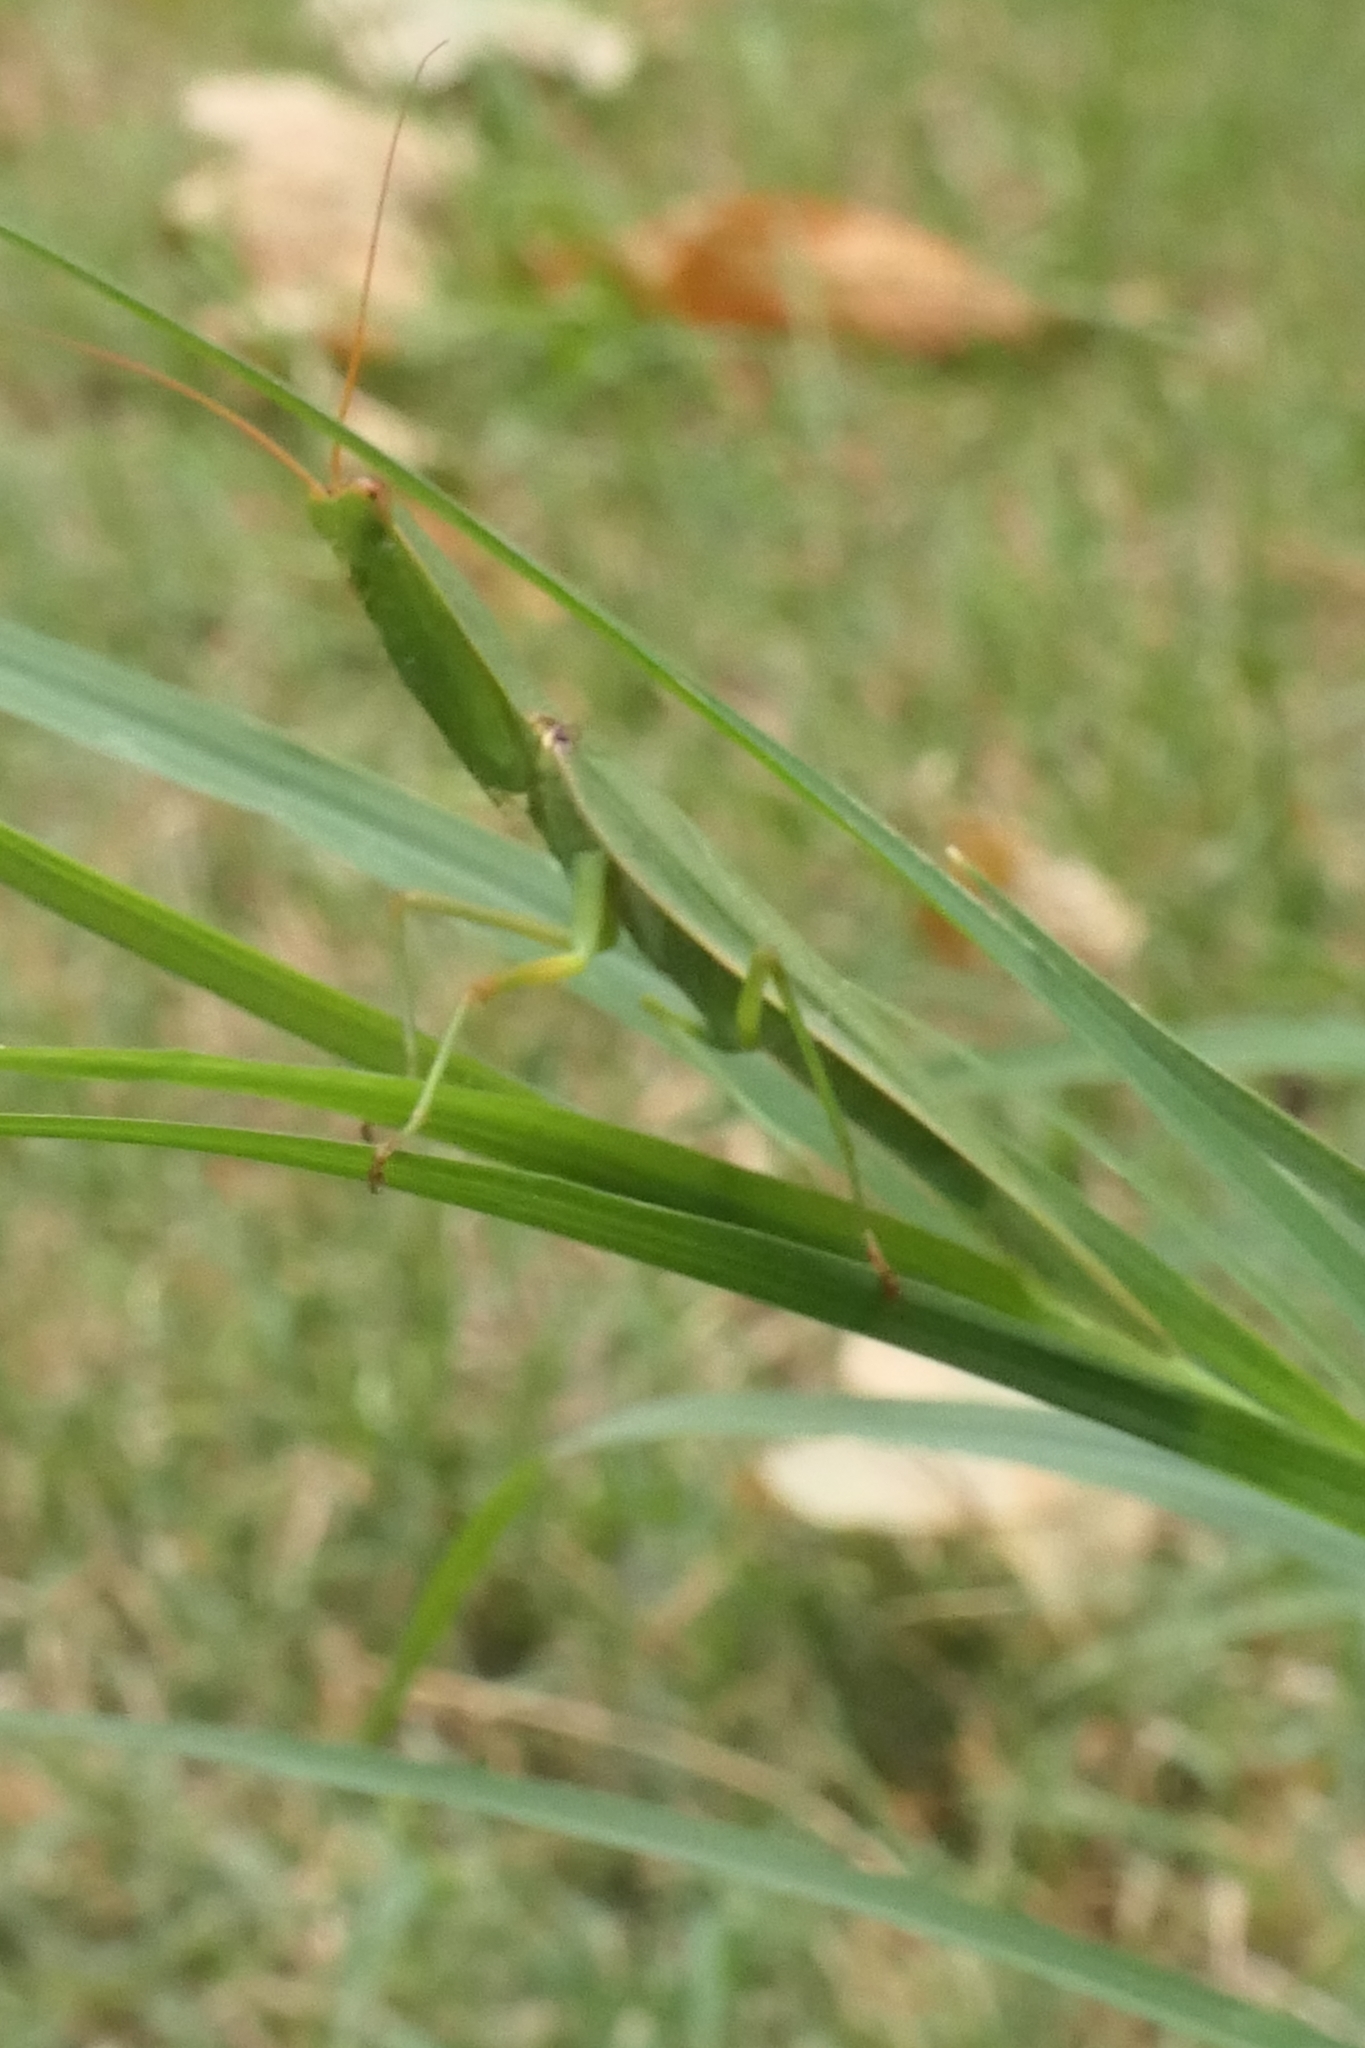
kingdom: Animalia
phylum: Arthropoda
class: Insecta
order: Mantodea
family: Mantidae
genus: Orthodera
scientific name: Orthodera novaezealandiae
